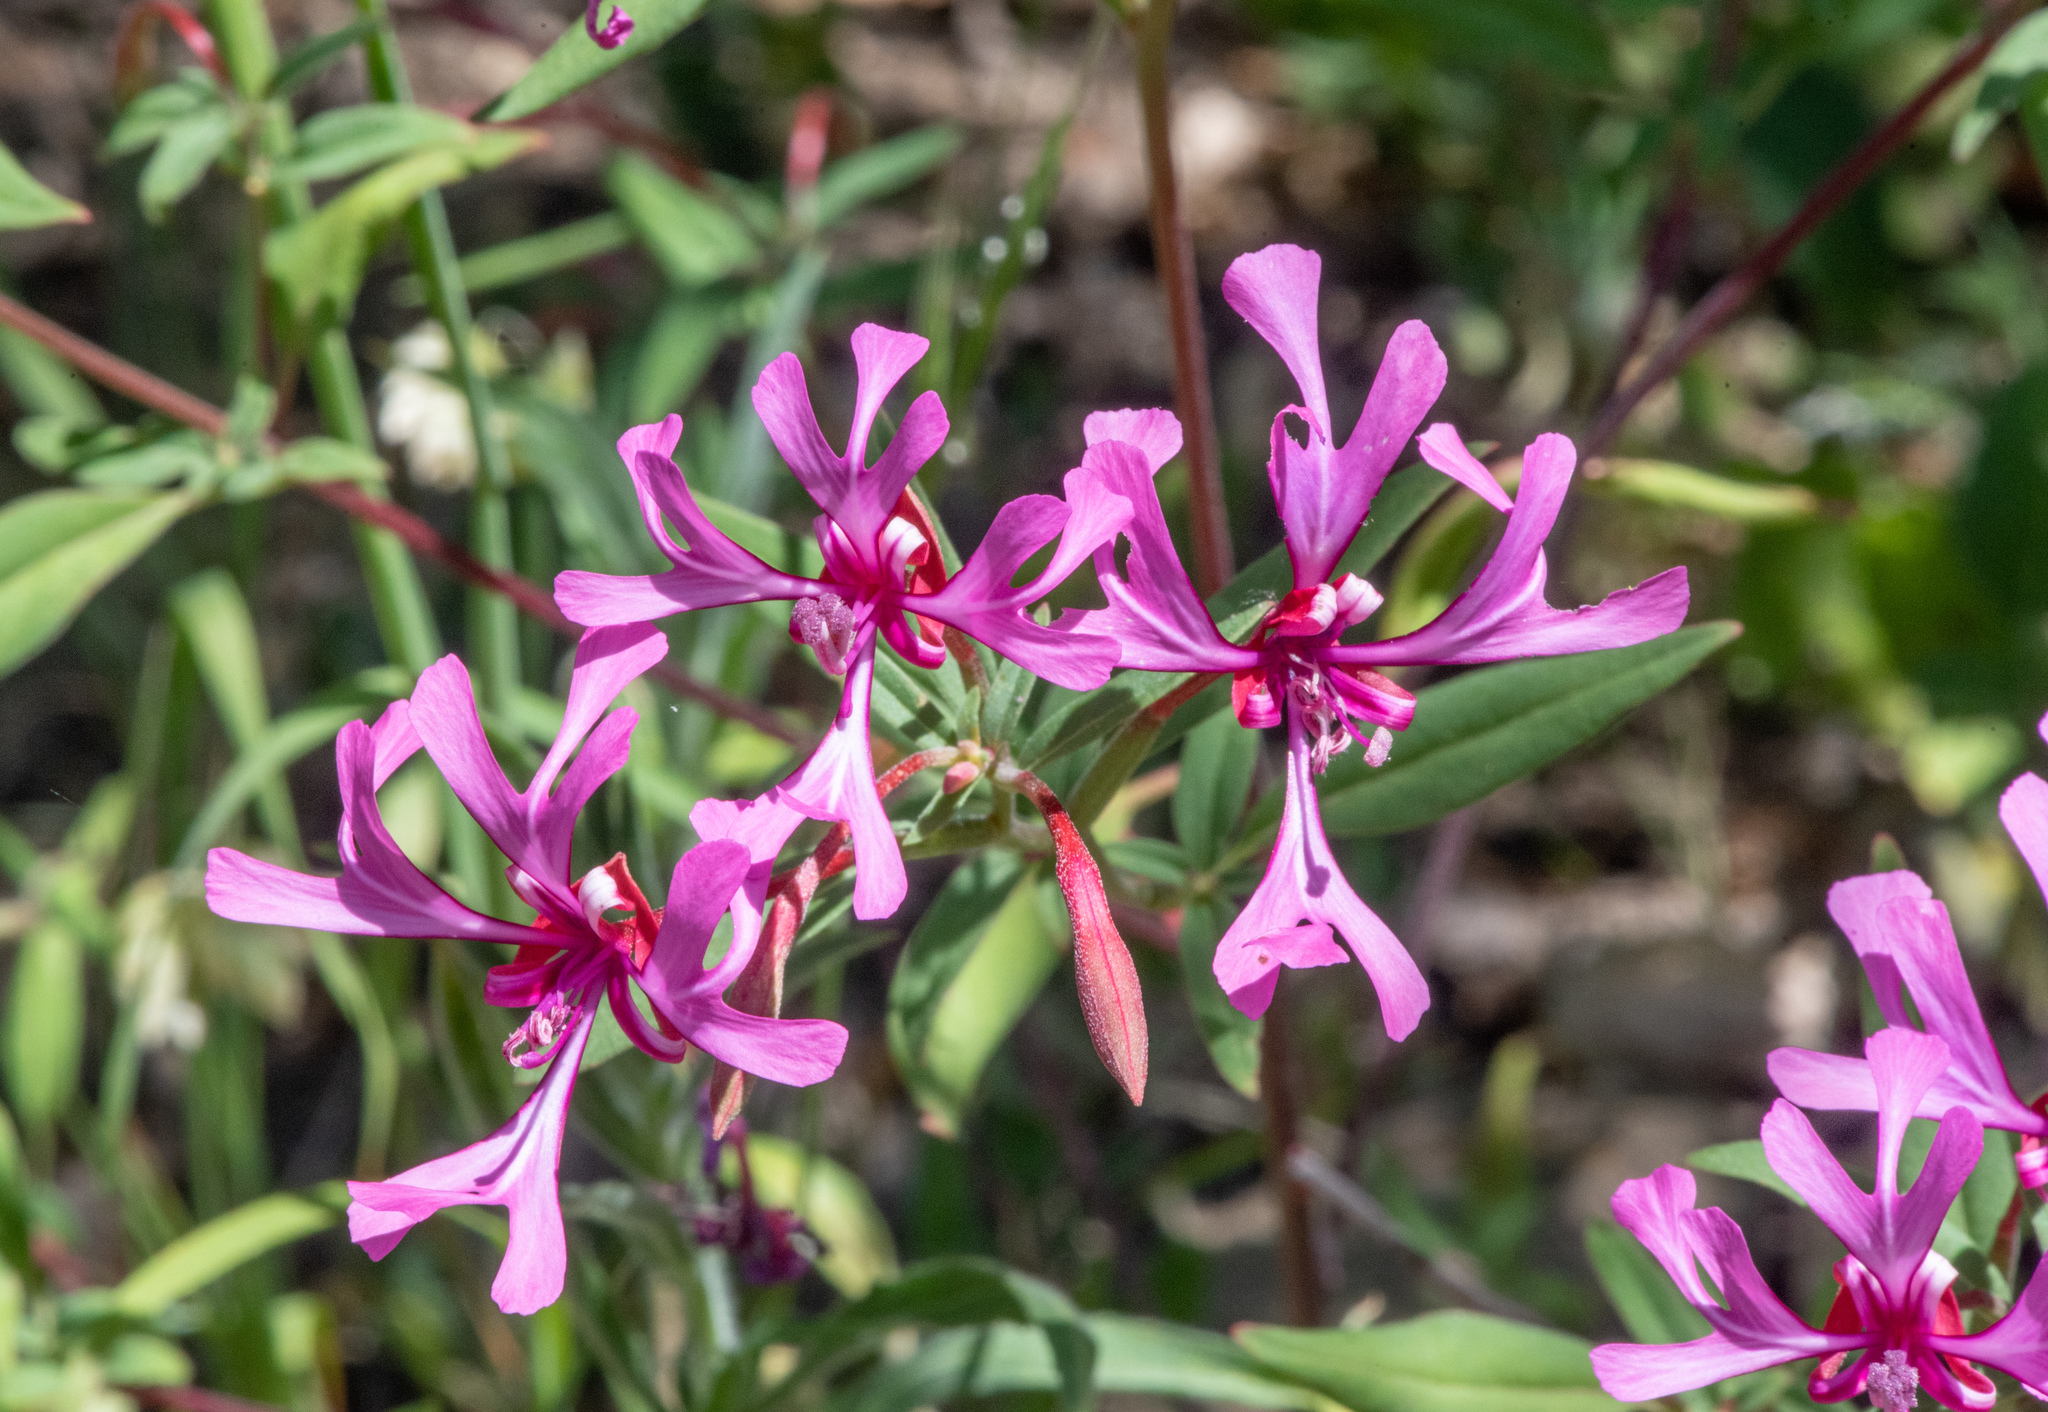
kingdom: Plantae
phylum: Tracheophyta
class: Magnoliopsida
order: Myrtales
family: Onagraceae
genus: Clarkia
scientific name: Clarkia concinna
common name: Red-ribbons
